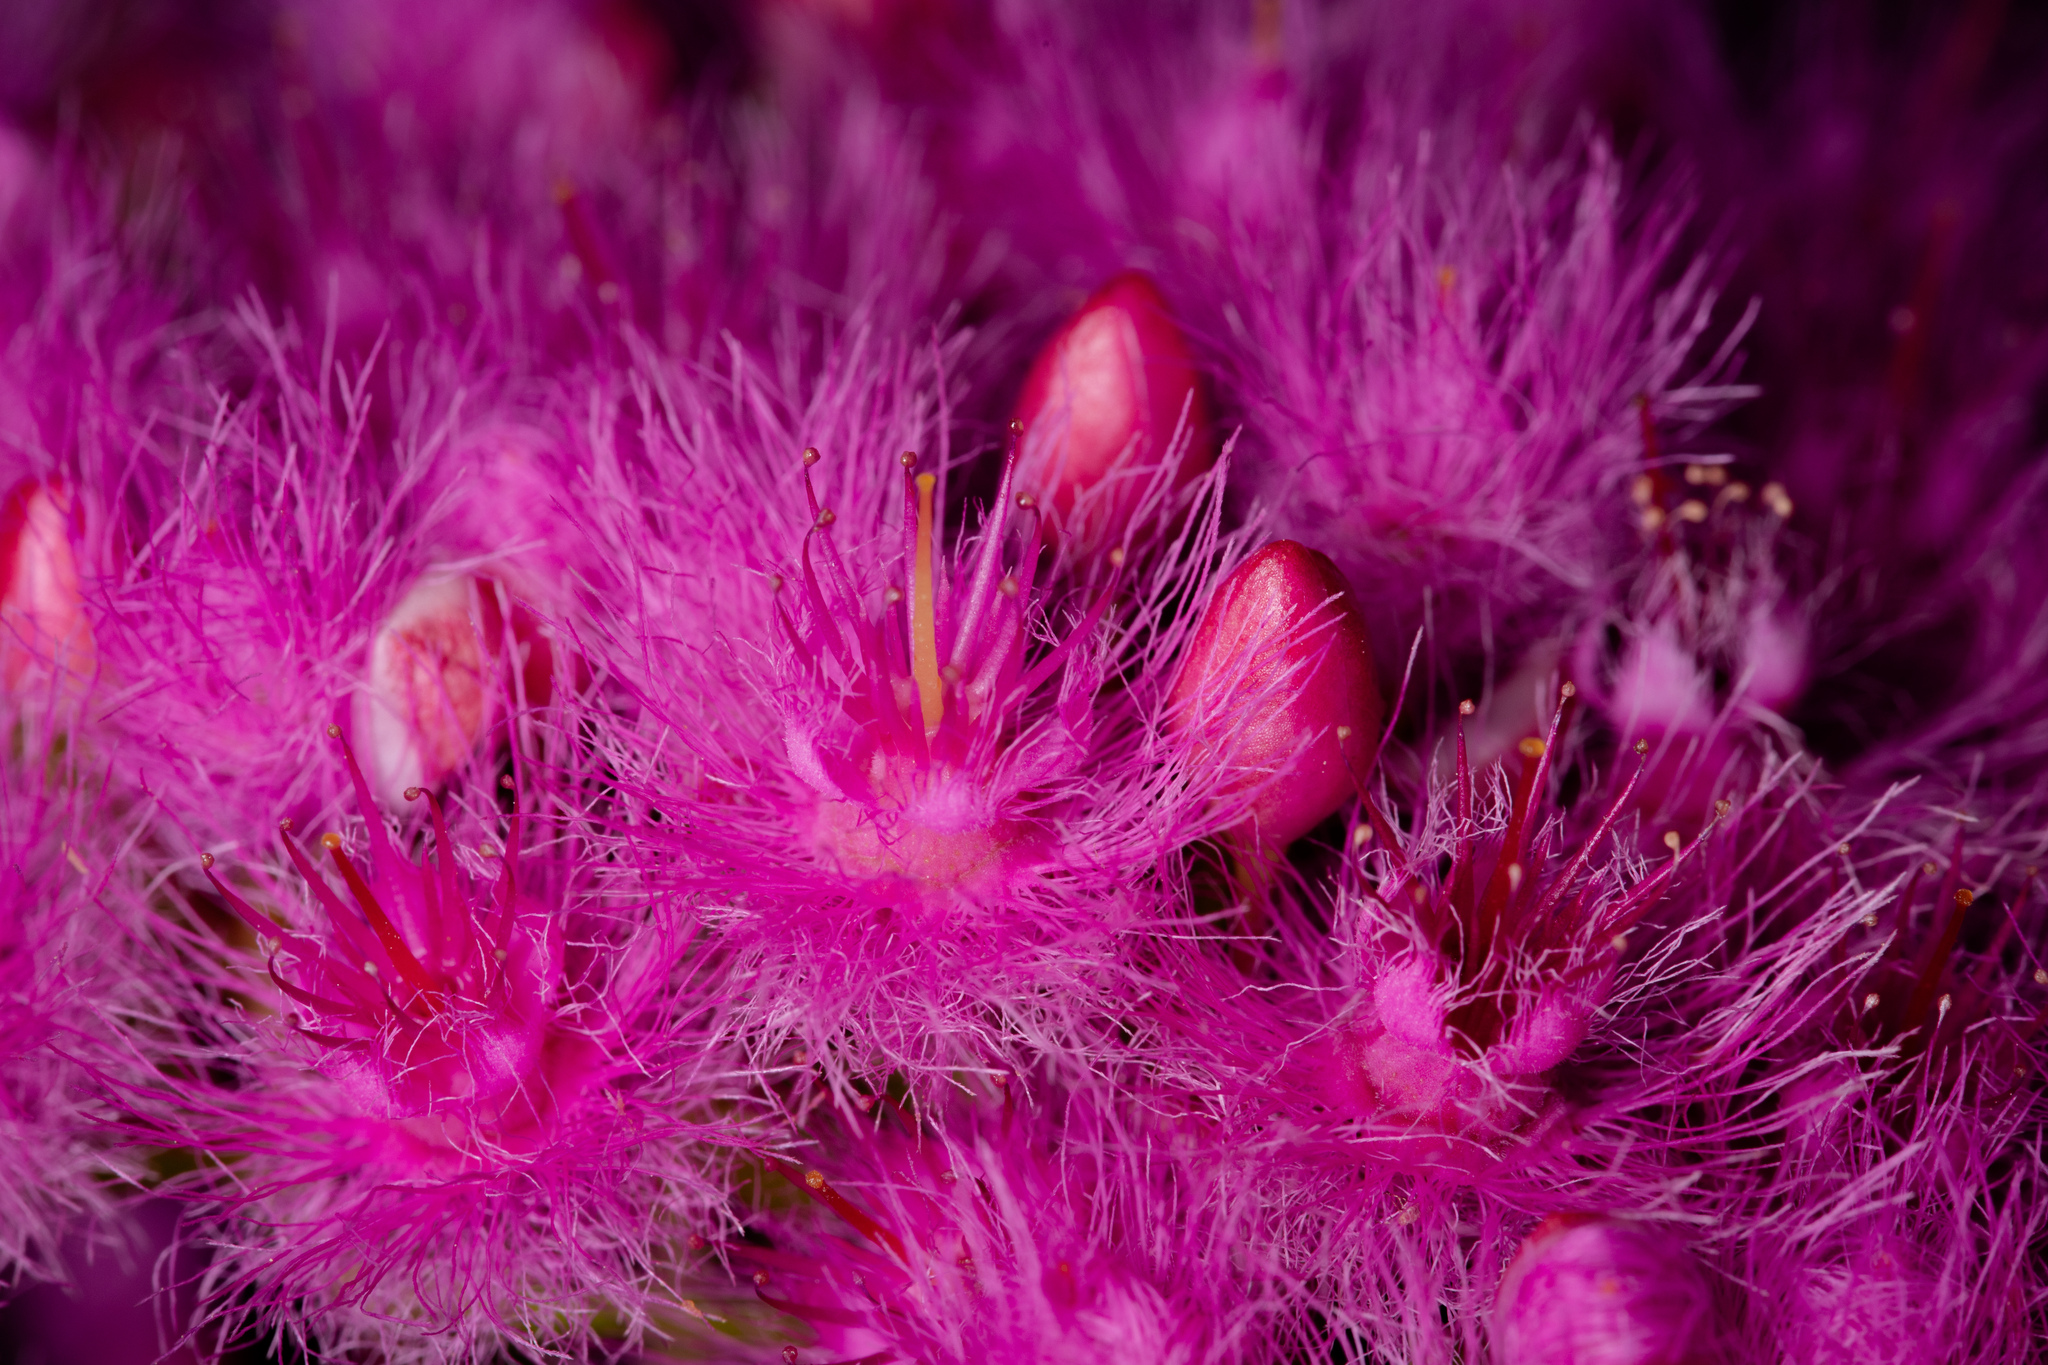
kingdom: Plantae
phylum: Tracheophyta
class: Magnoliopsida
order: Myrtales
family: Myrtaceae
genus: Verticordia
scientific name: Verticordia monadelpha
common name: Woolly feather-flower
